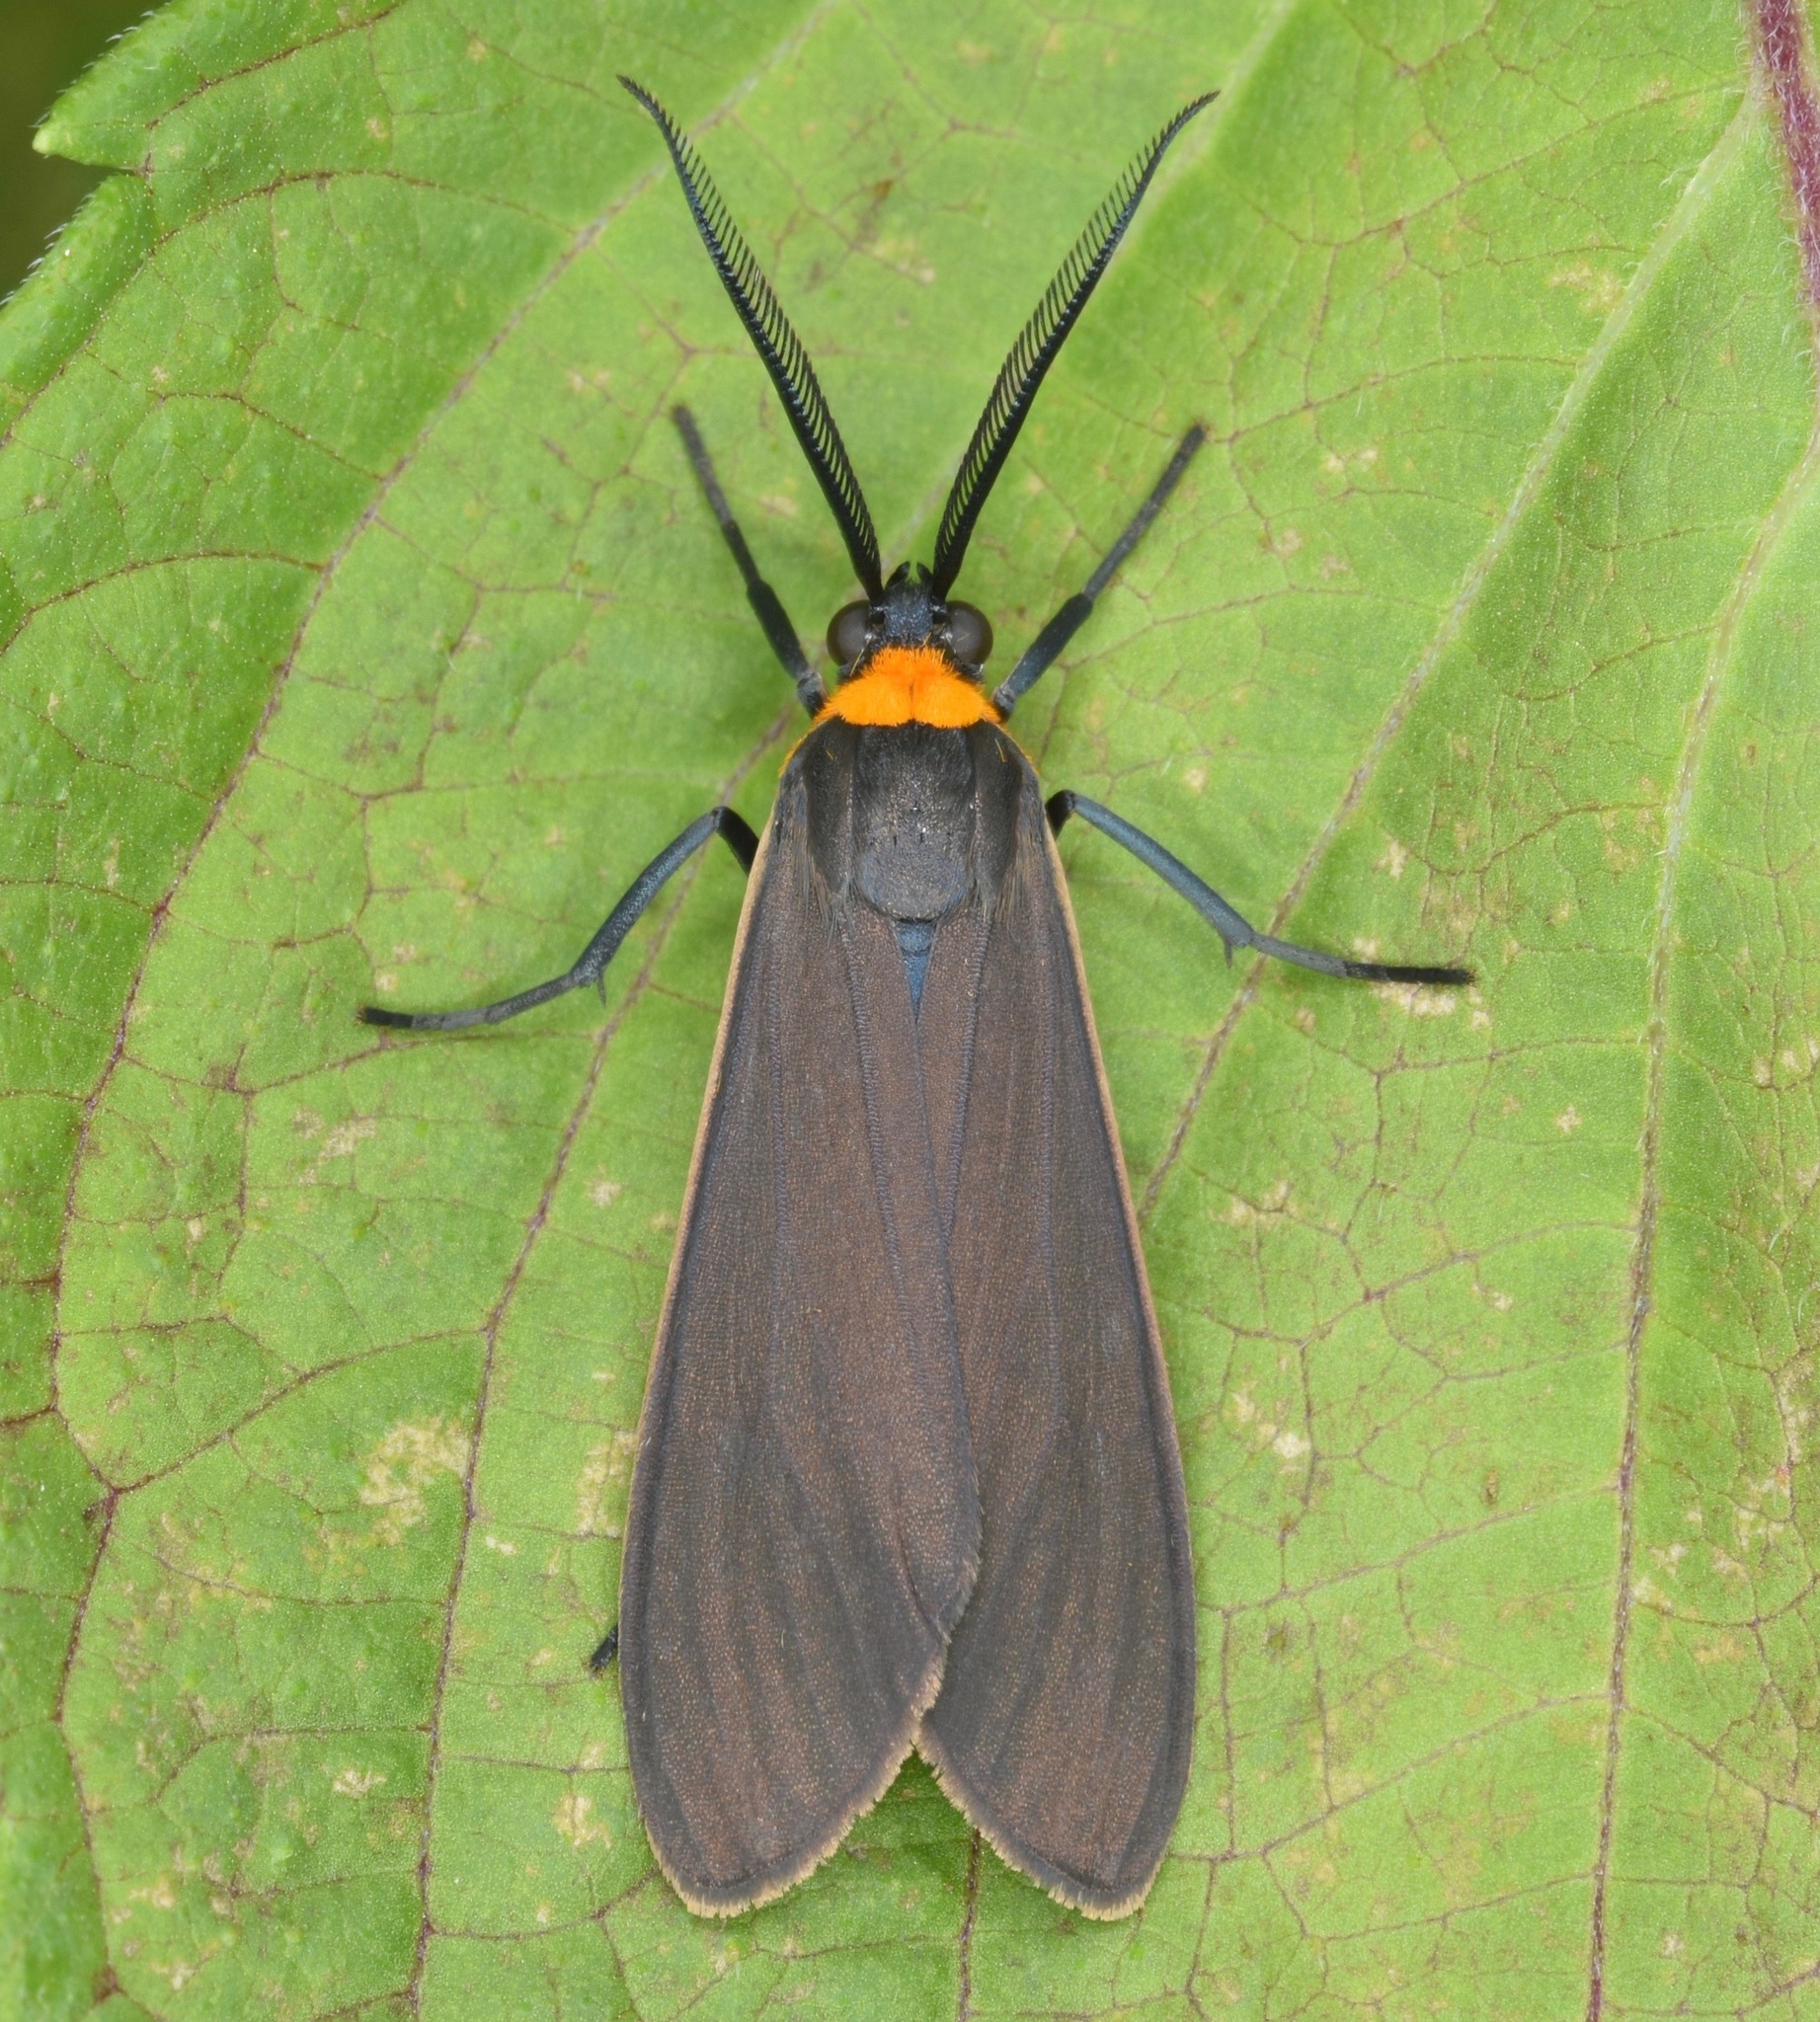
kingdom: Animalia
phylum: Arthropoda
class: Insecta
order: Lepidoptera
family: Erebidae
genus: Cisseps
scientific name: Cisseps fulvicollis
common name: Yellow-collared scape moth
